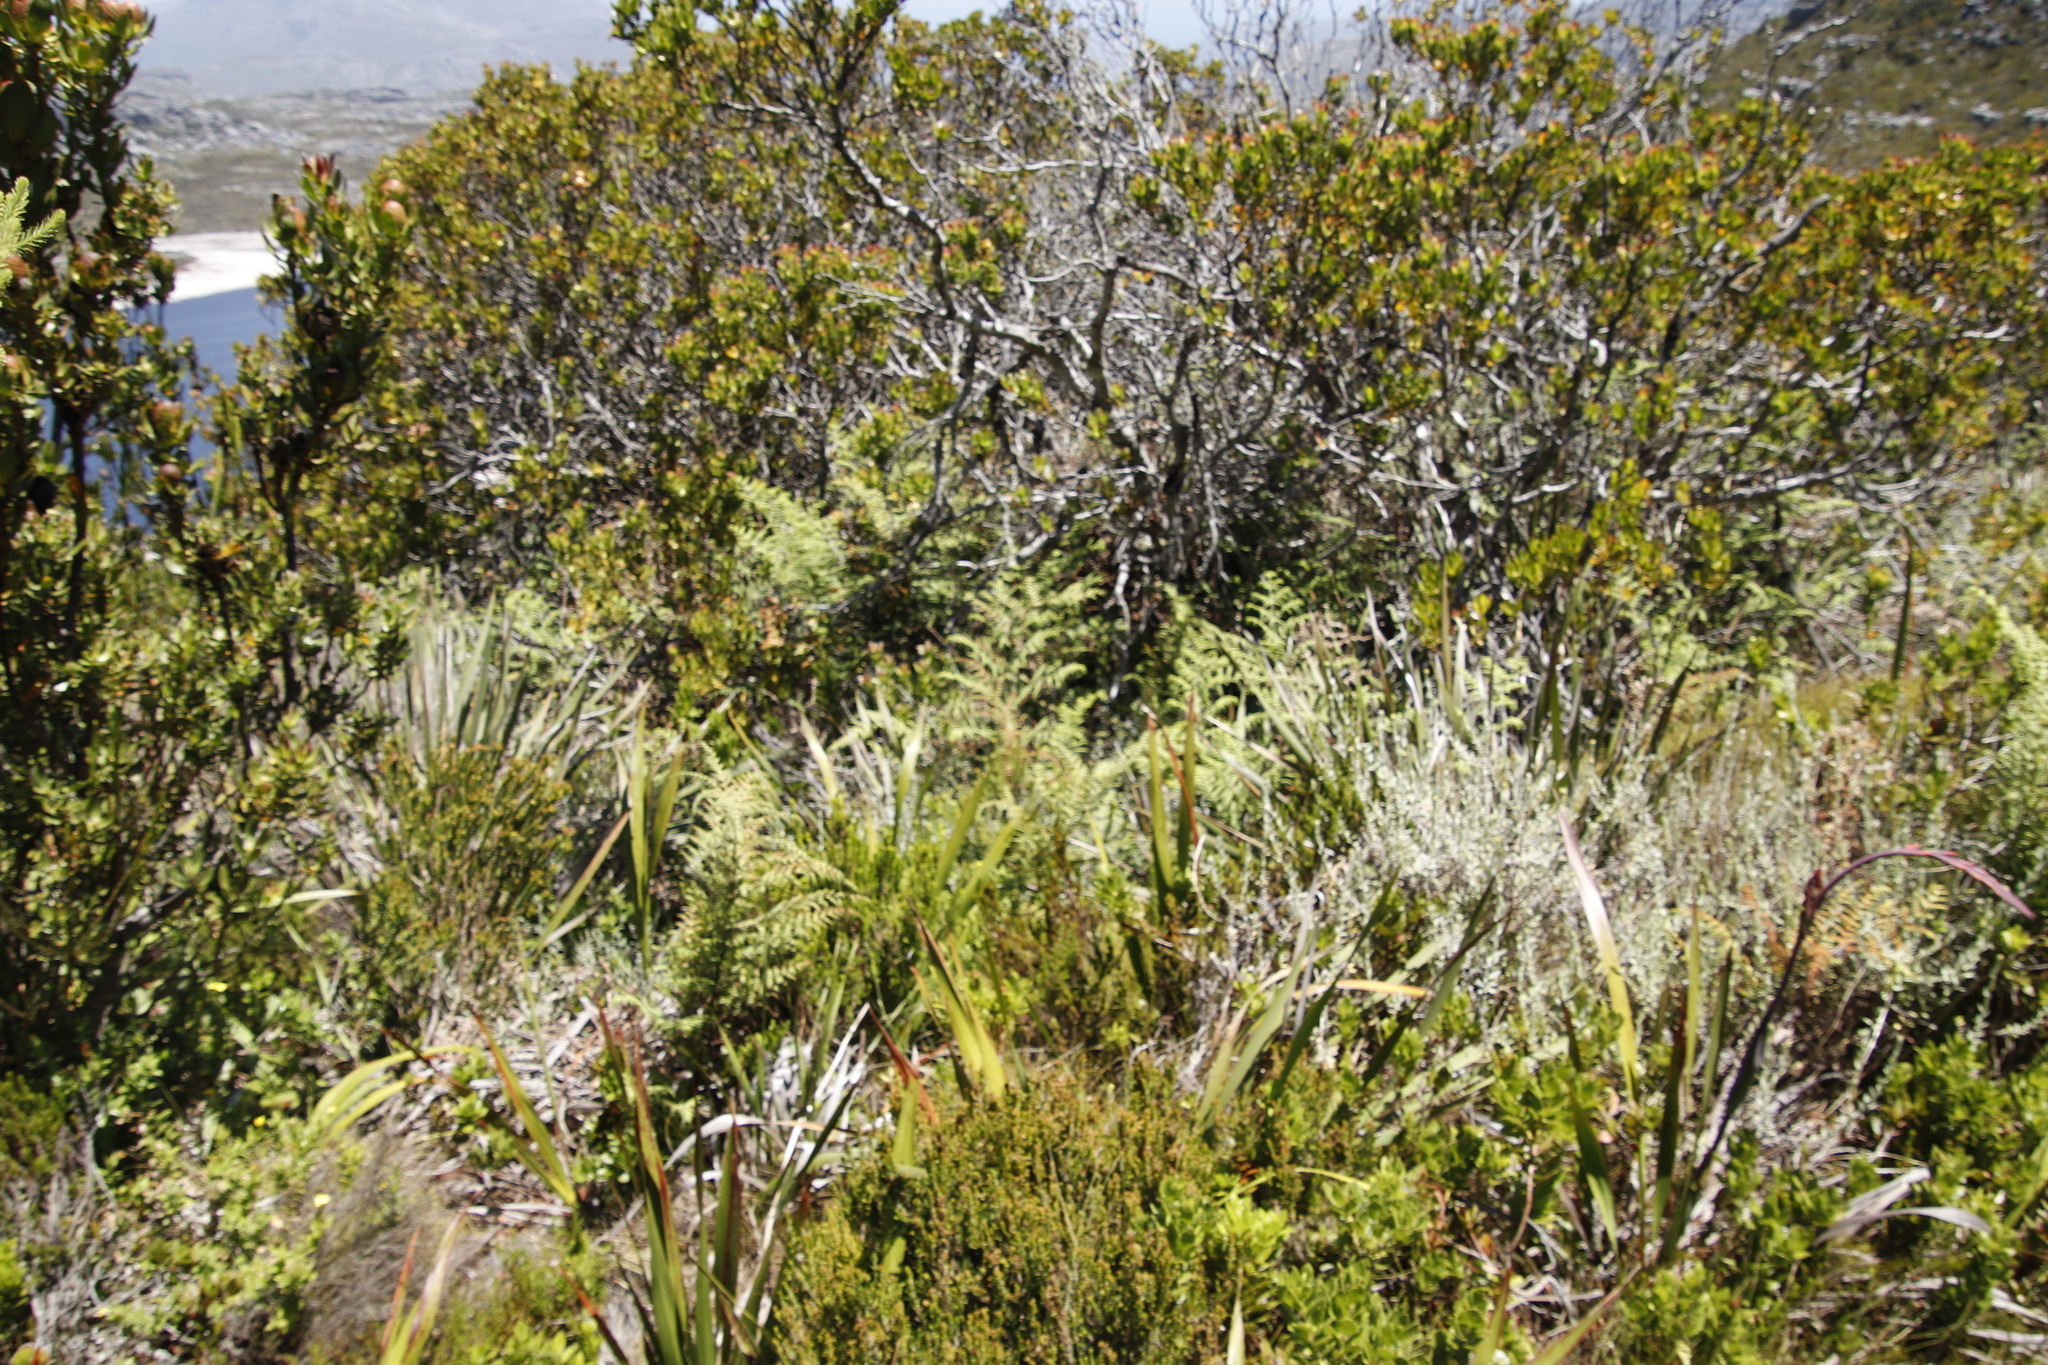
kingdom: Plantae
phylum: Tracheophyta
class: Polypodiopsida
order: Polypodiales
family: Dennstaedtiaceae
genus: Histiopteris
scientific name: Histiopteris incisa
